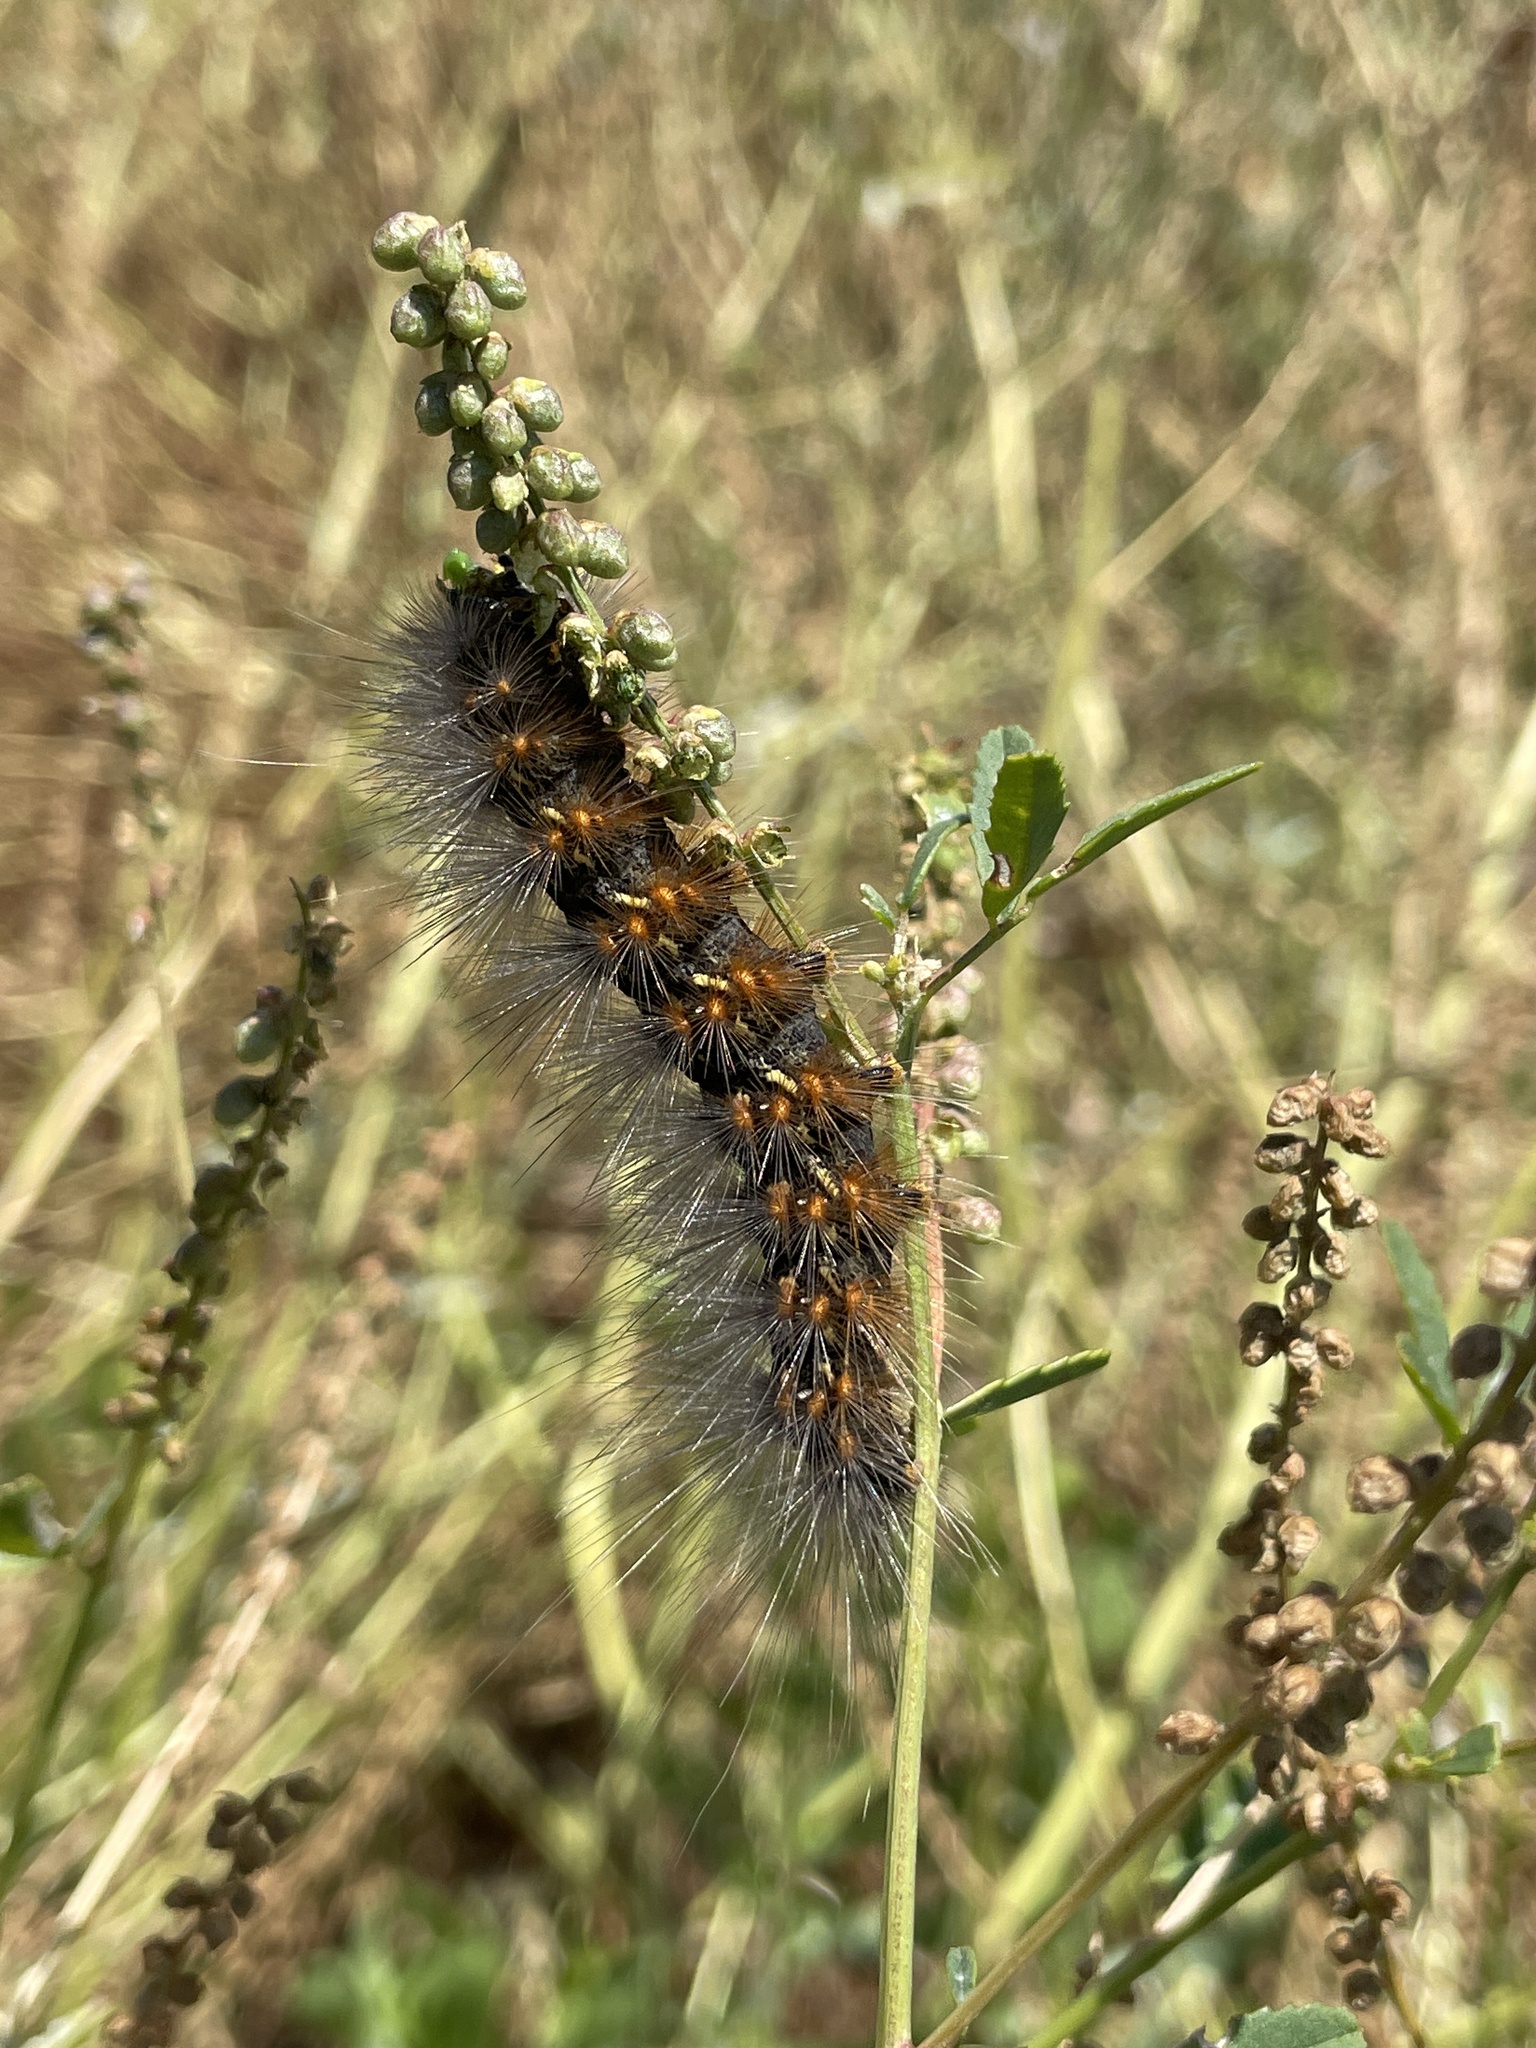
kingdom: Animalia
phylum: Arthropoda
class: Insecta
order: Lepidoptera
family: Erebidae
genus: Estigmene
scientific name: Estigmene acrea
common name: Salt marsh moth
